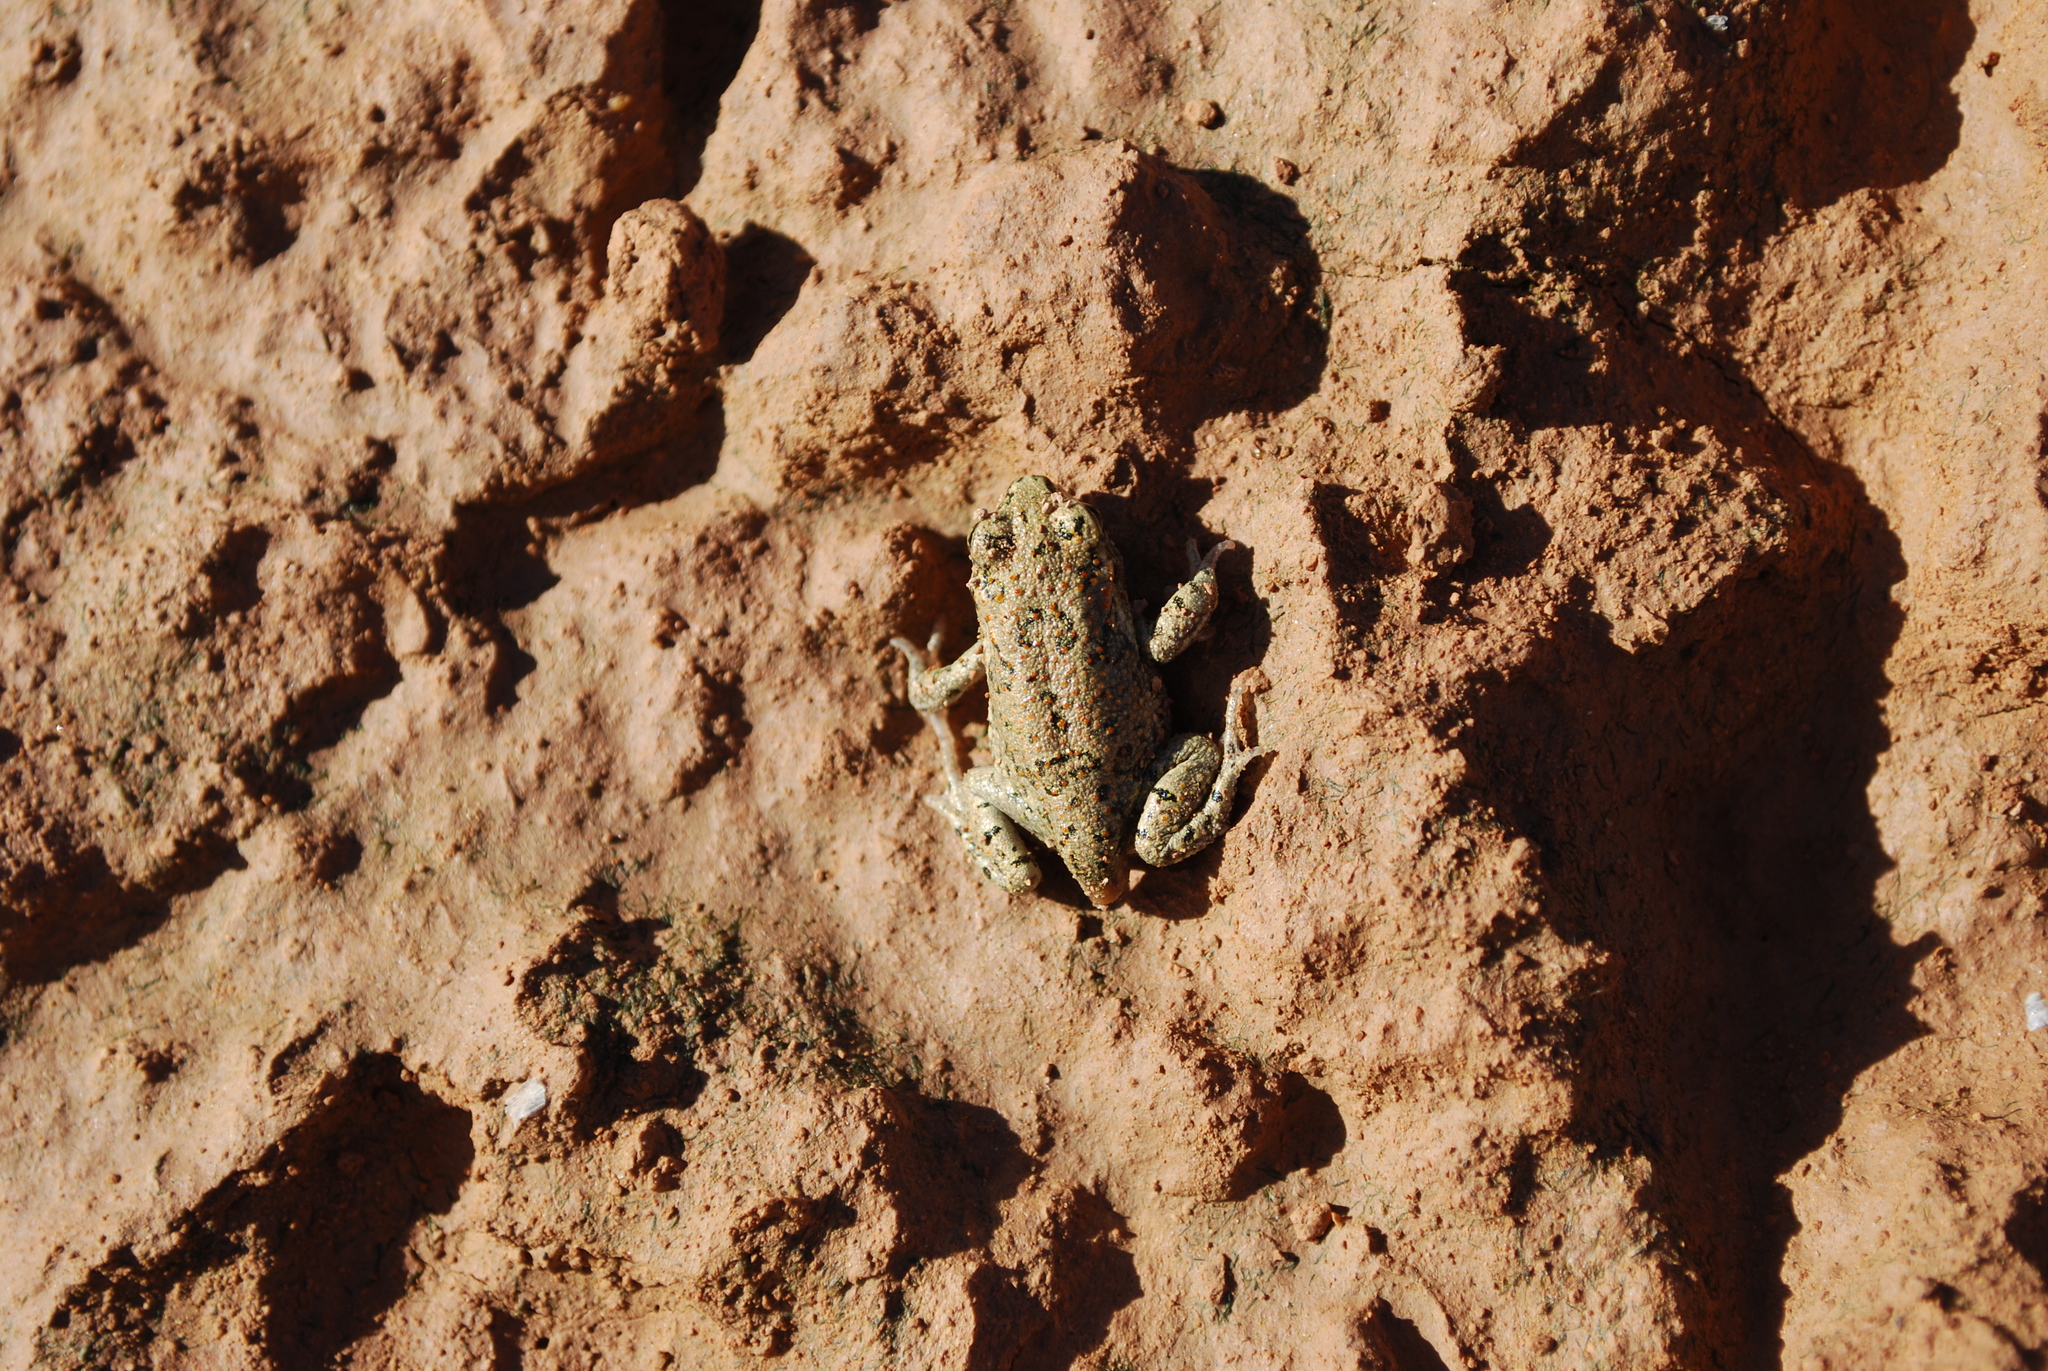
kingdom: Animalia
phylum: Chordata
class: Amphibia
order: Anura
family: Bufonidae
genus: Bufotes
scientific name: Bufotes boulengeri
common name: African green toad
